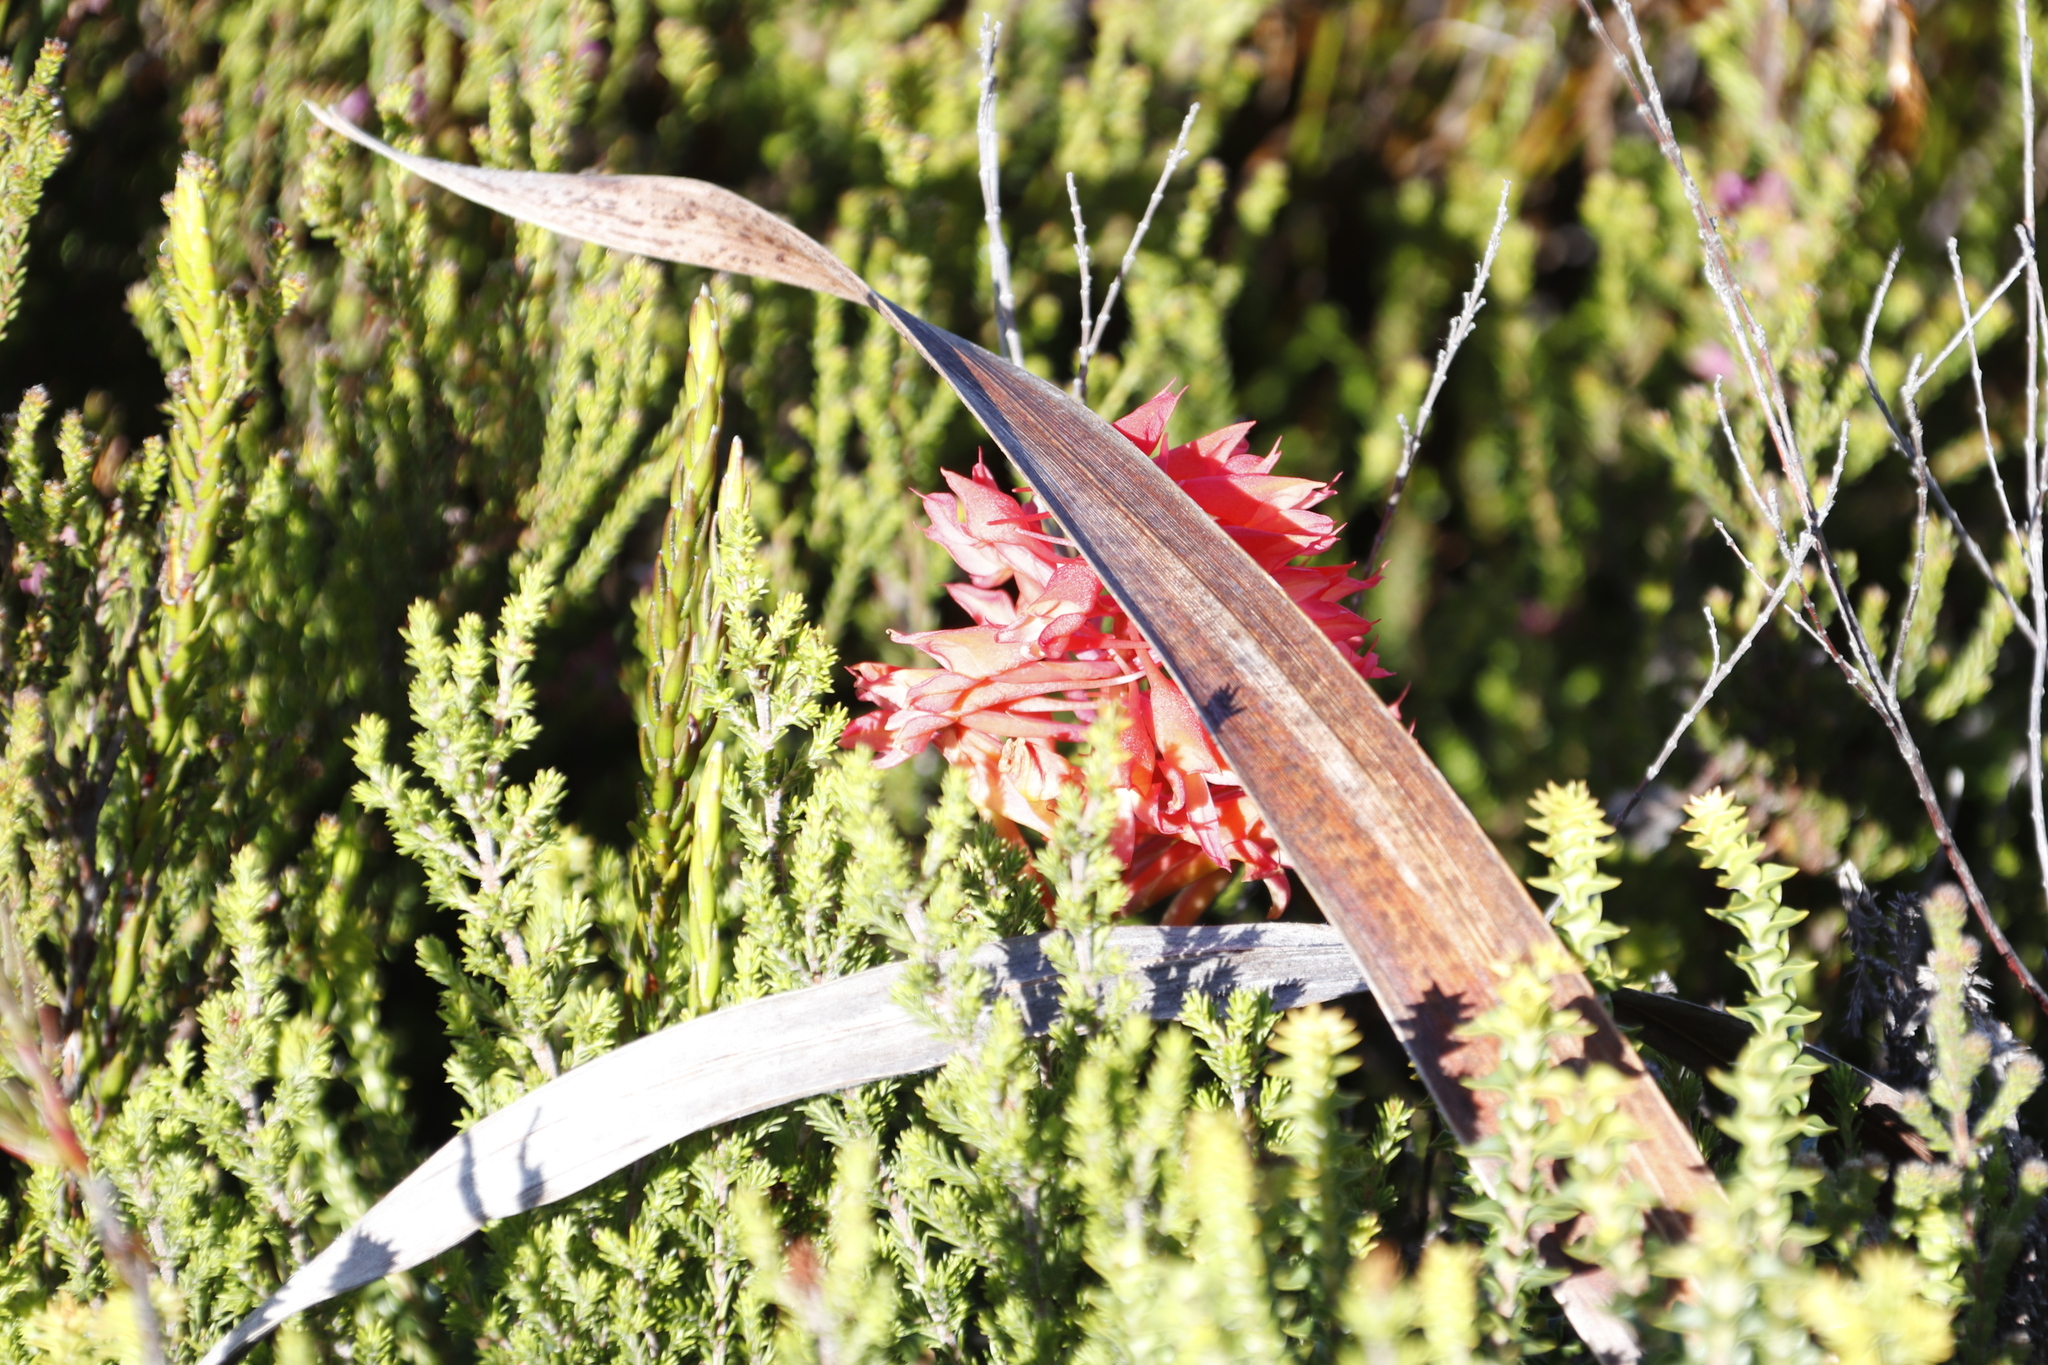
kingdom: Plantae
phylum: Tracheophyta
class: Liliopsida
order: Asparagales
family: Orchidaceae
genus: Disa
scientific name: Disa ferruginea
